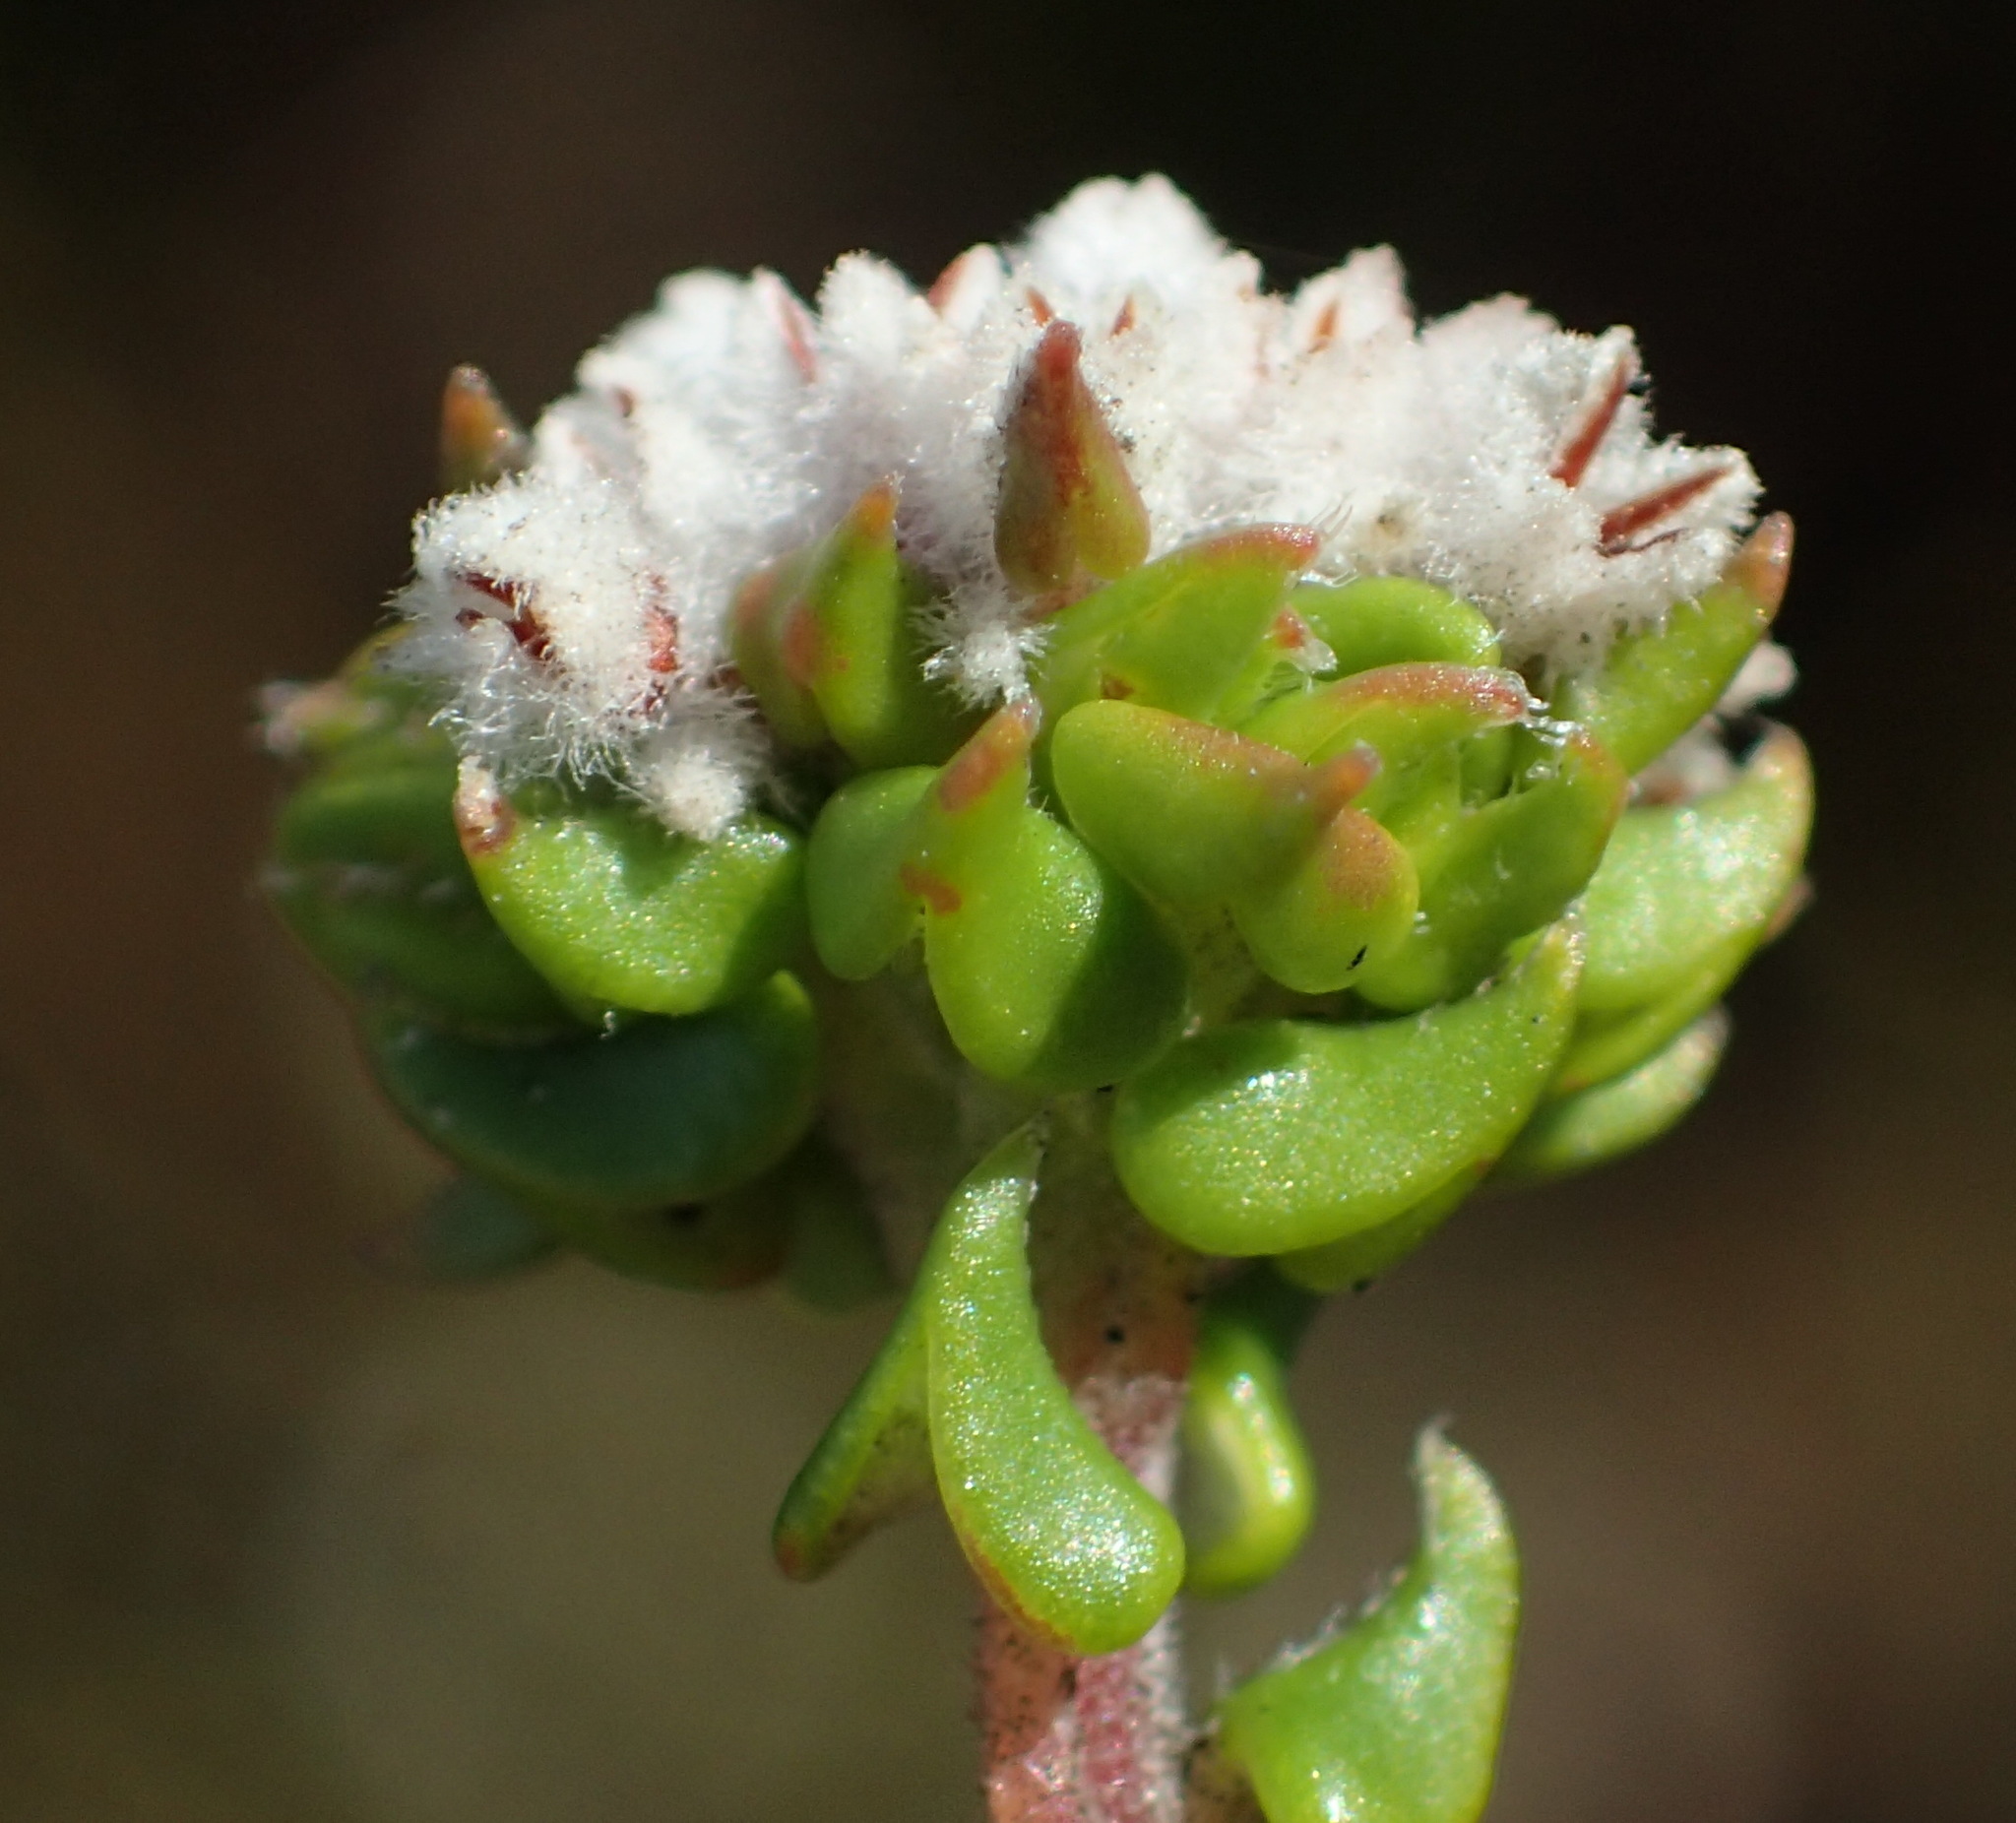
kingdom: Plantae
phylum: Tracheophyta
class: Magnoliopsida
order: Rosales
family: Rhamnaceae
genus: Phylica
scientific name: Phylica debilis
